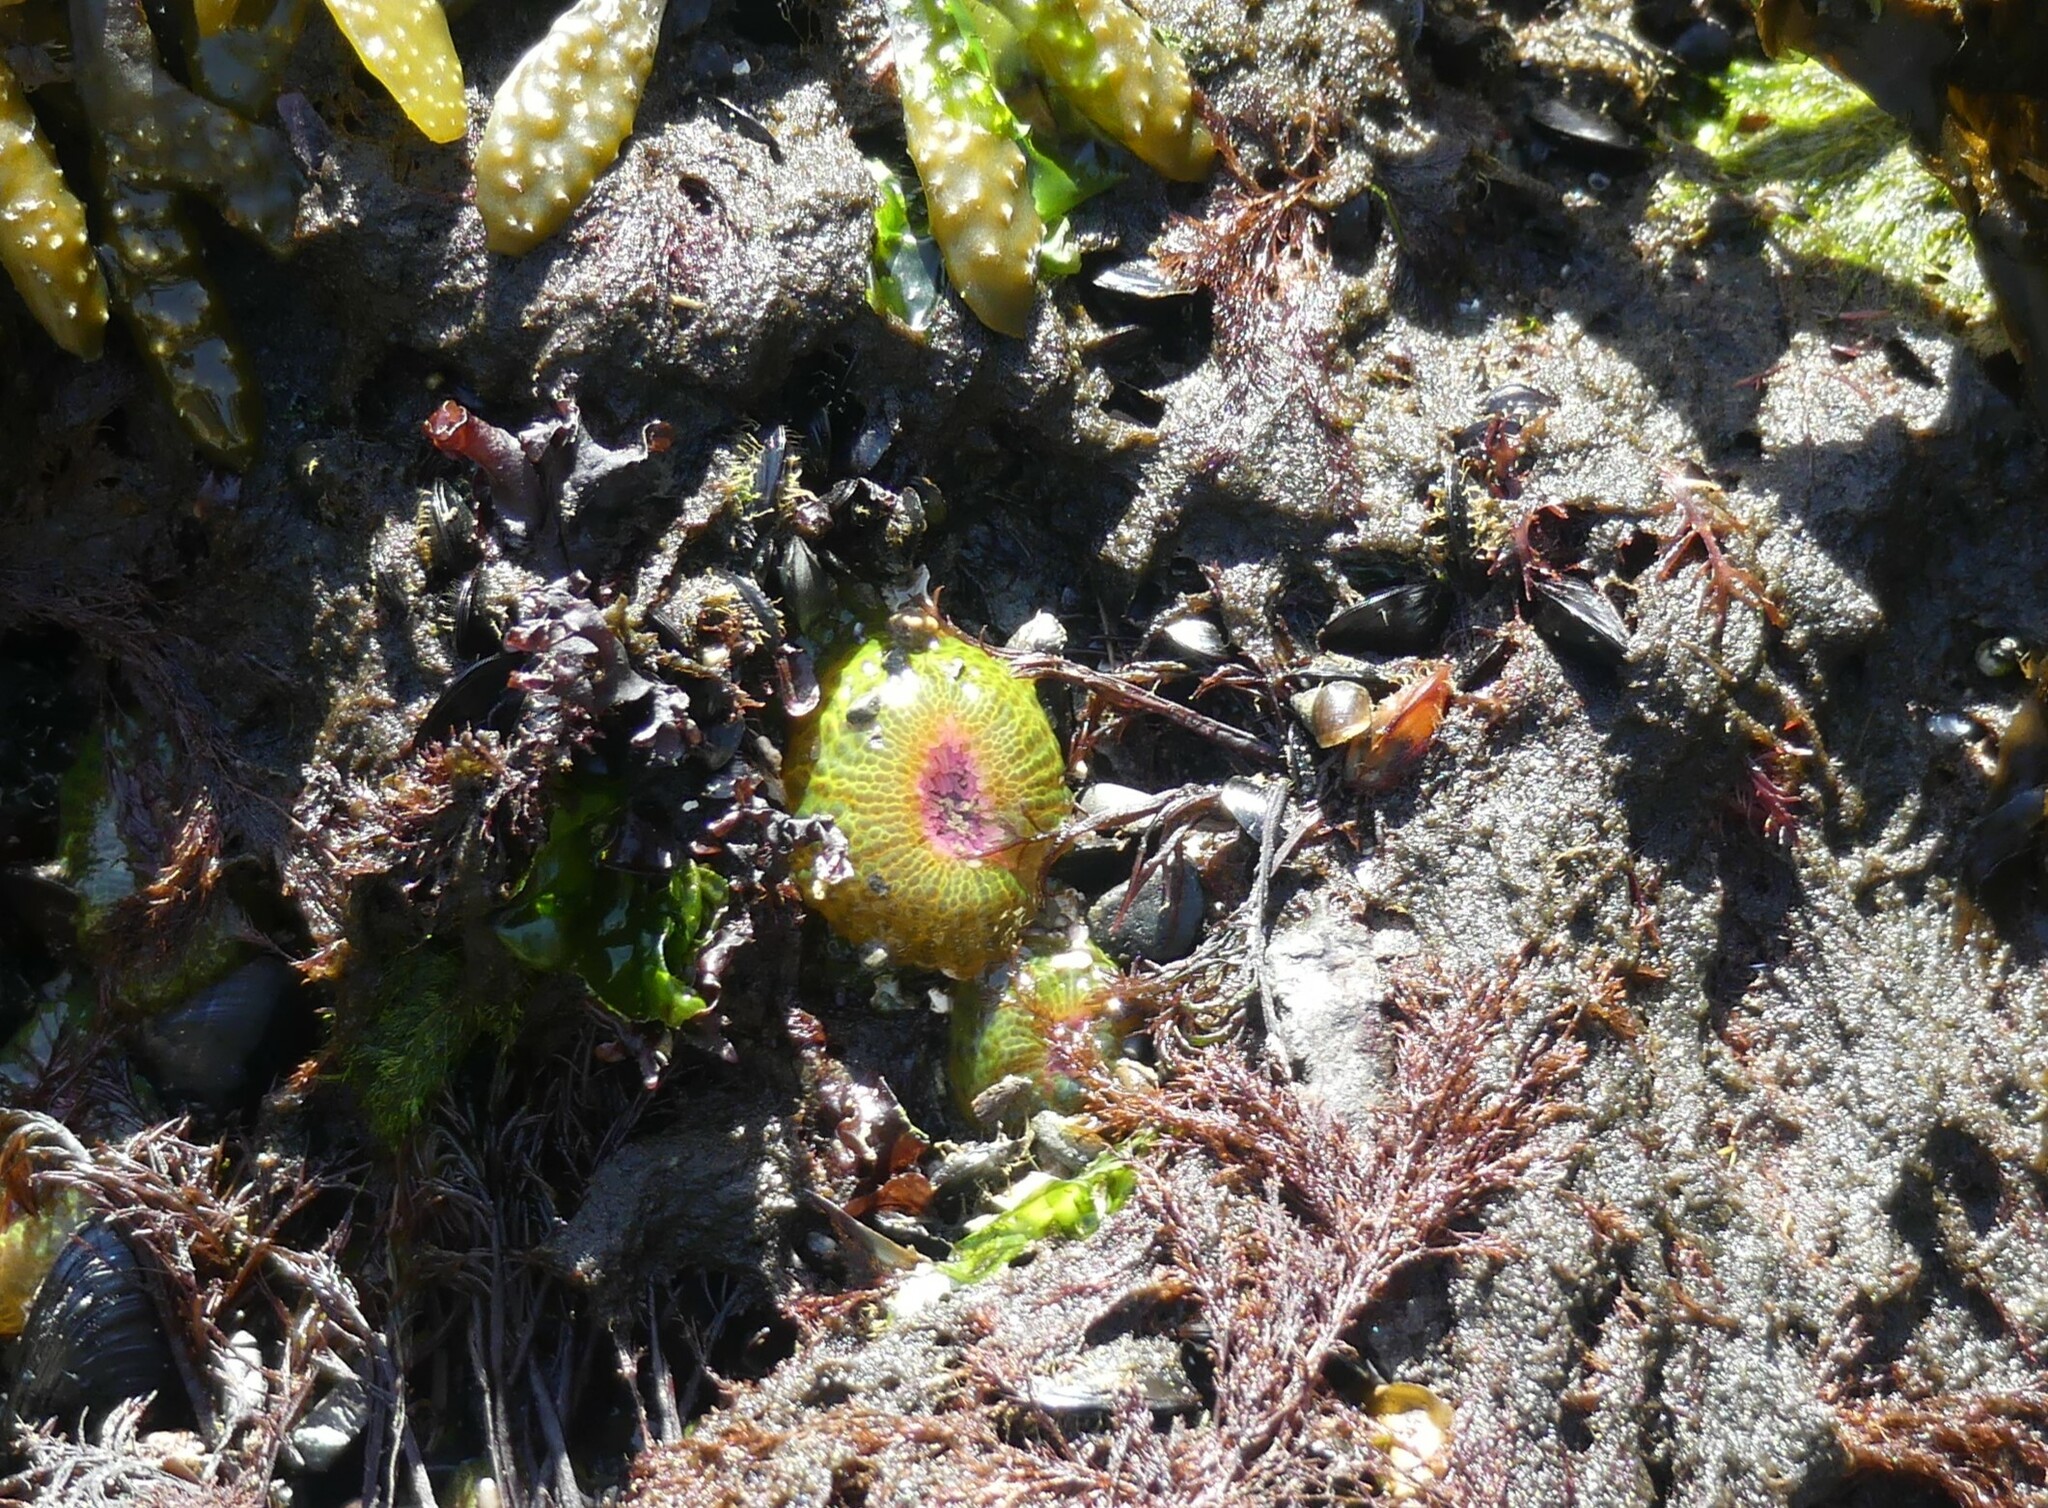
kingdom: Animalia
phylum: Cnidaria
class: Anthozoa
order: Actiniaria
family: Actiniidae
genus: Anthopleura
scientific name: Anthopleura elegantissima
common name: Clonal anemone
